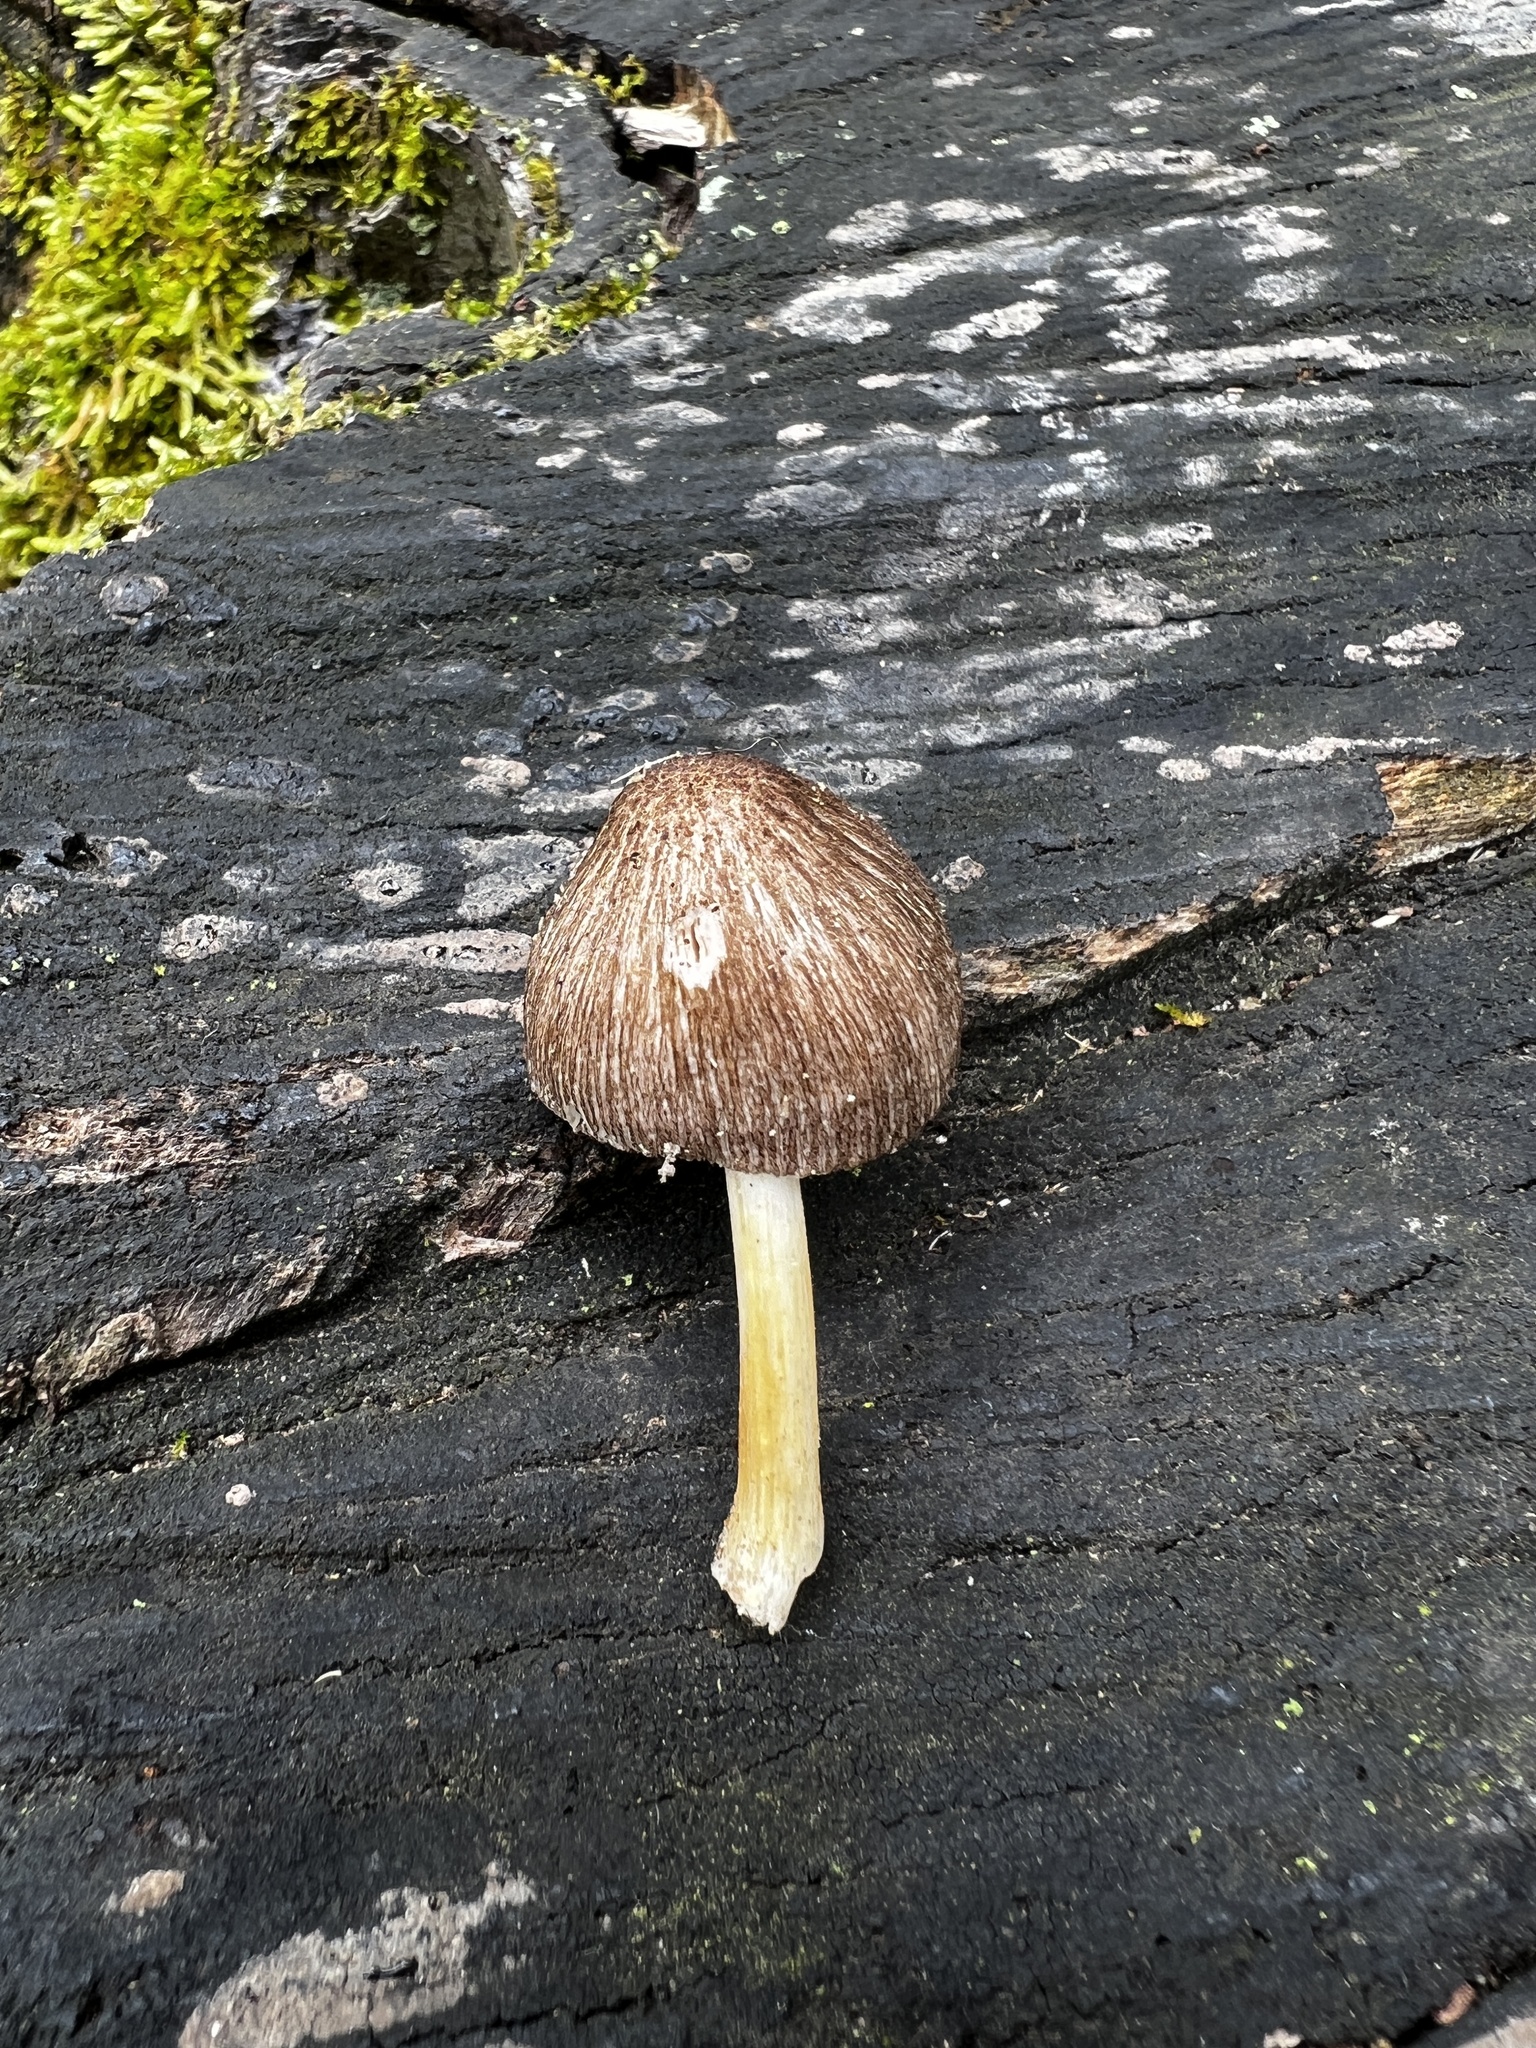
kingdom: Fungi
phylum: Basidiomycota
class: Agaricomycetes
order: Agaricales
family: Pluteaceae
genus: Pluteus
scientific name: Pluteus longistriatus
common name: Pleated pluteus
